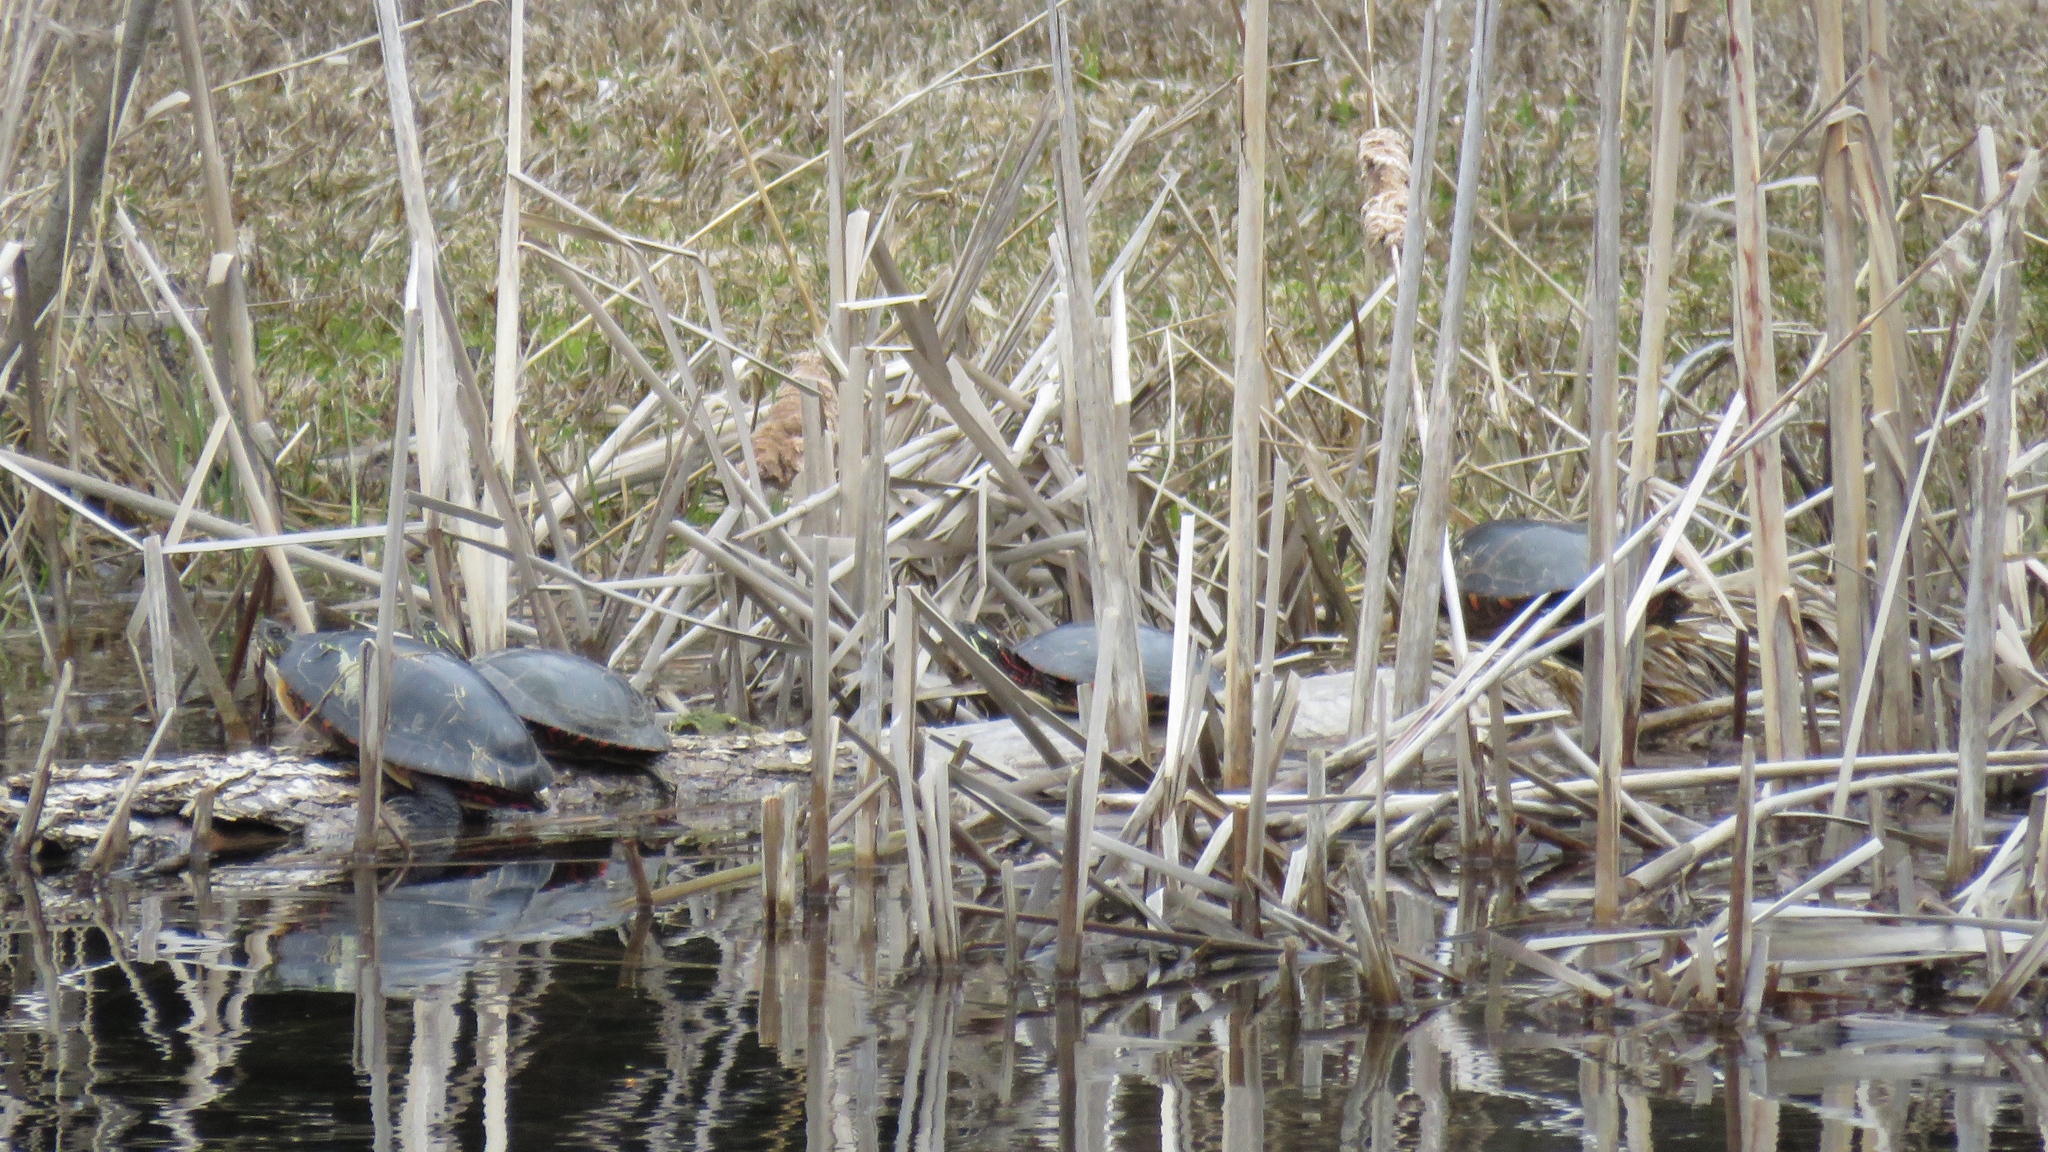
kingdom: Animalia
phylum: Chordata
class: Testudines
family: Emydidae
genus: Chrysemys
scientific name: Chrysemys picta
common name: Painted turtle
